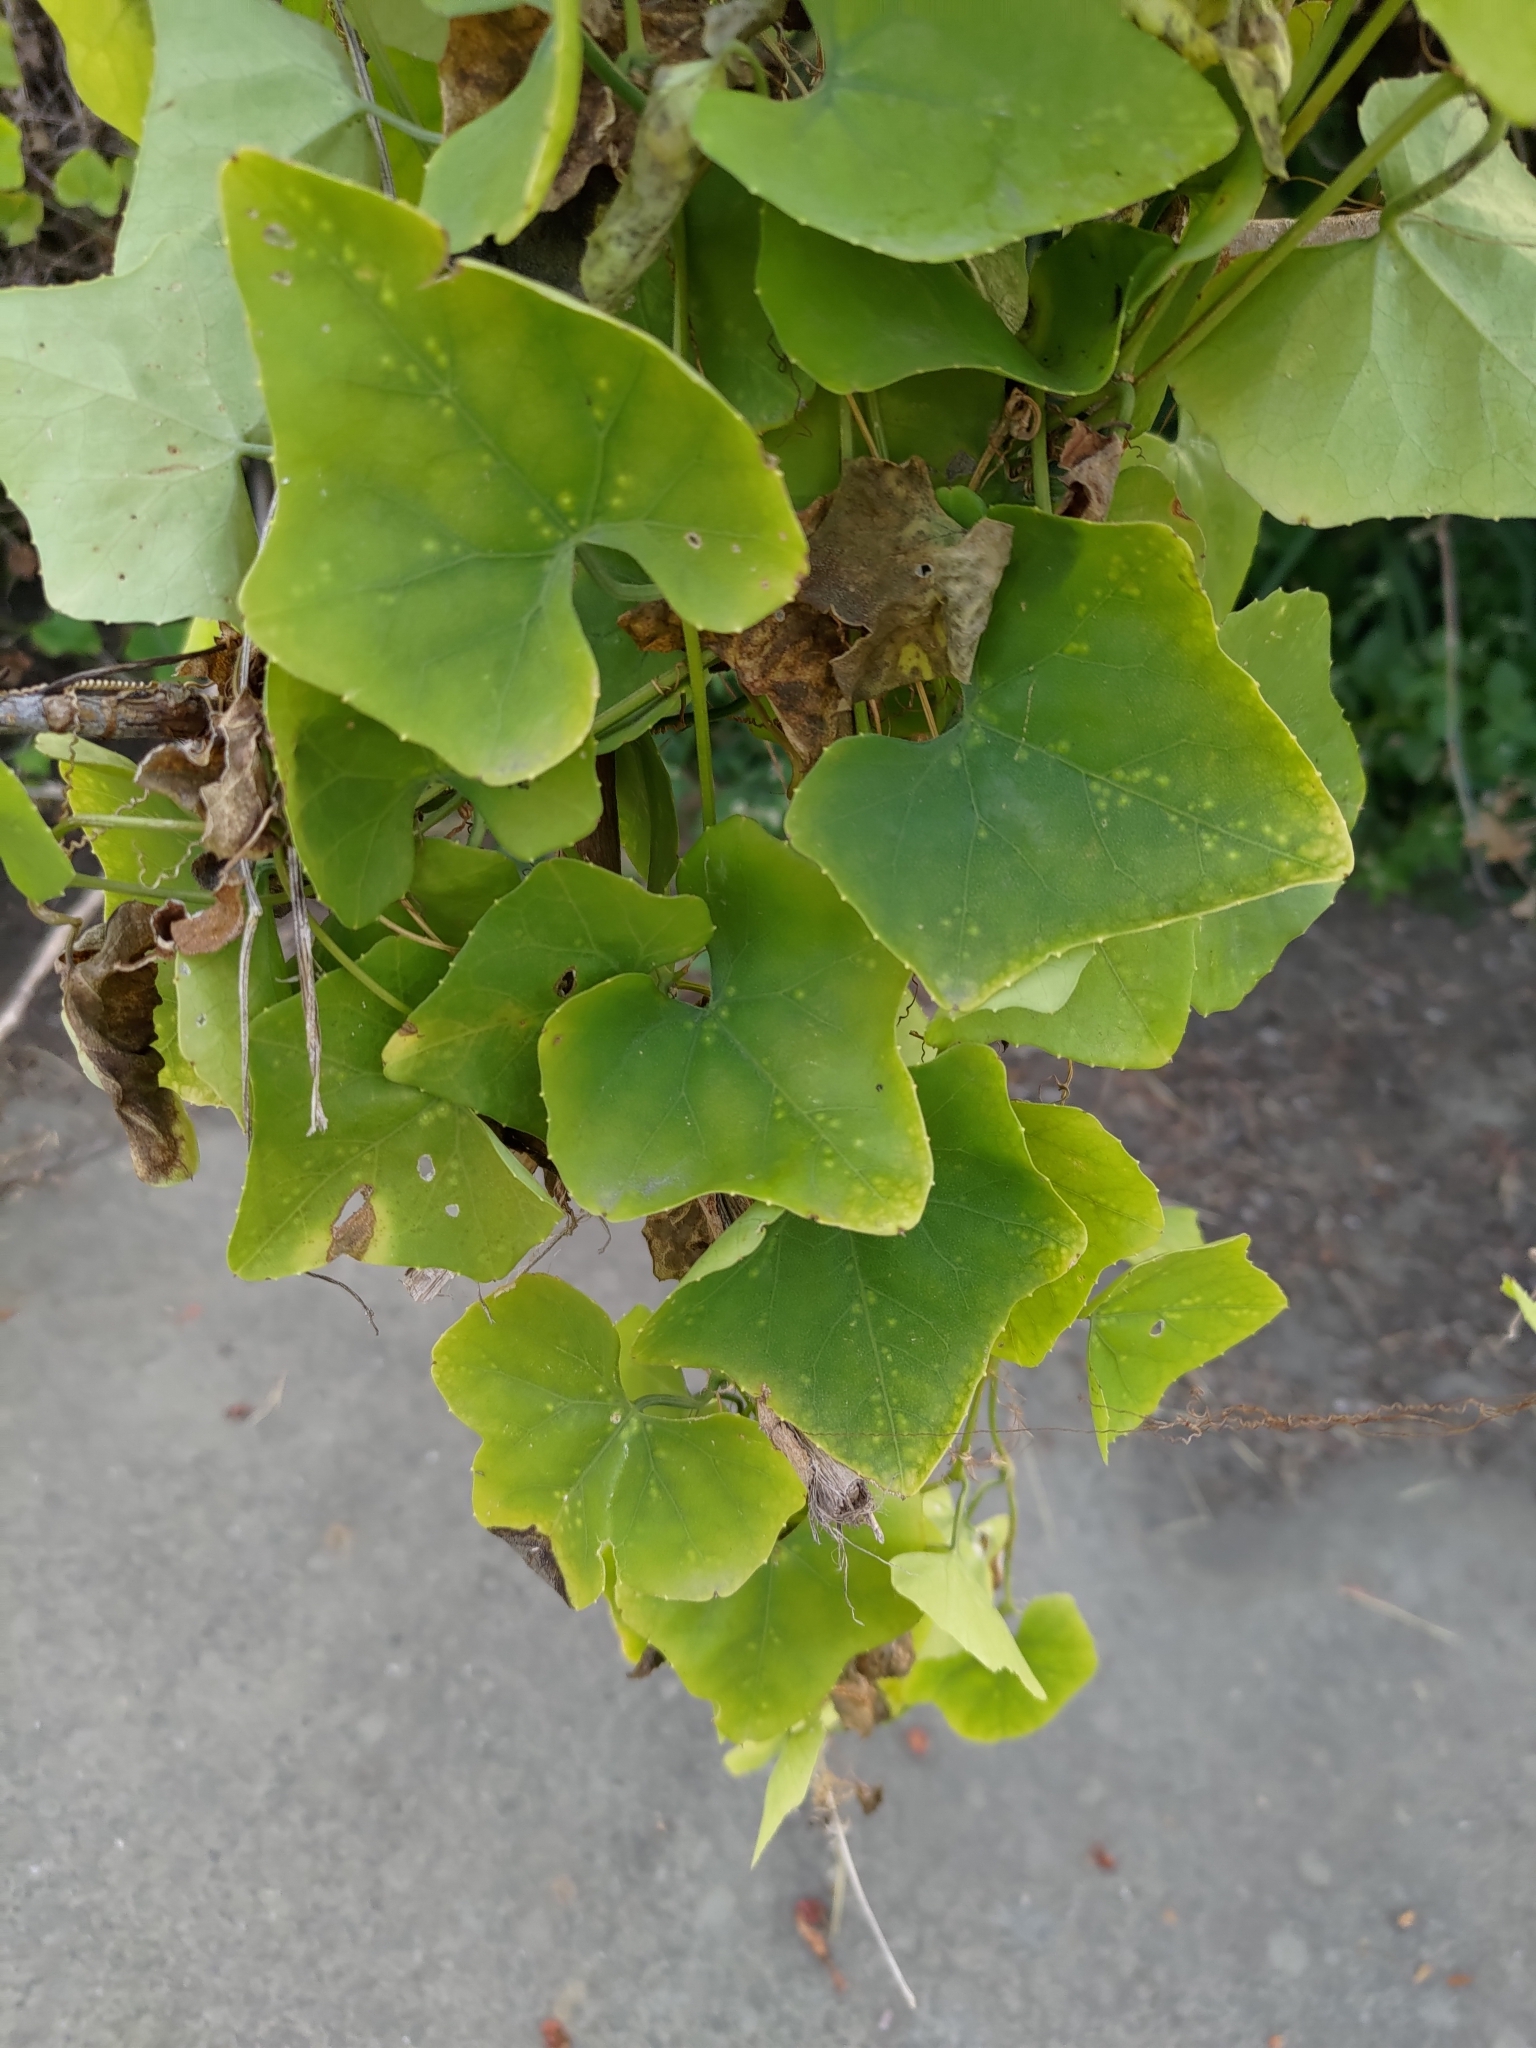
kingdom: Plantae
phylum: Tracheophyta
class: Magnoliopsida
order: Cucurbitales
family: Cucurbitaceae
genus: Coccinia
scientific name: Coccinia grandis
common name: Ivy gourd
